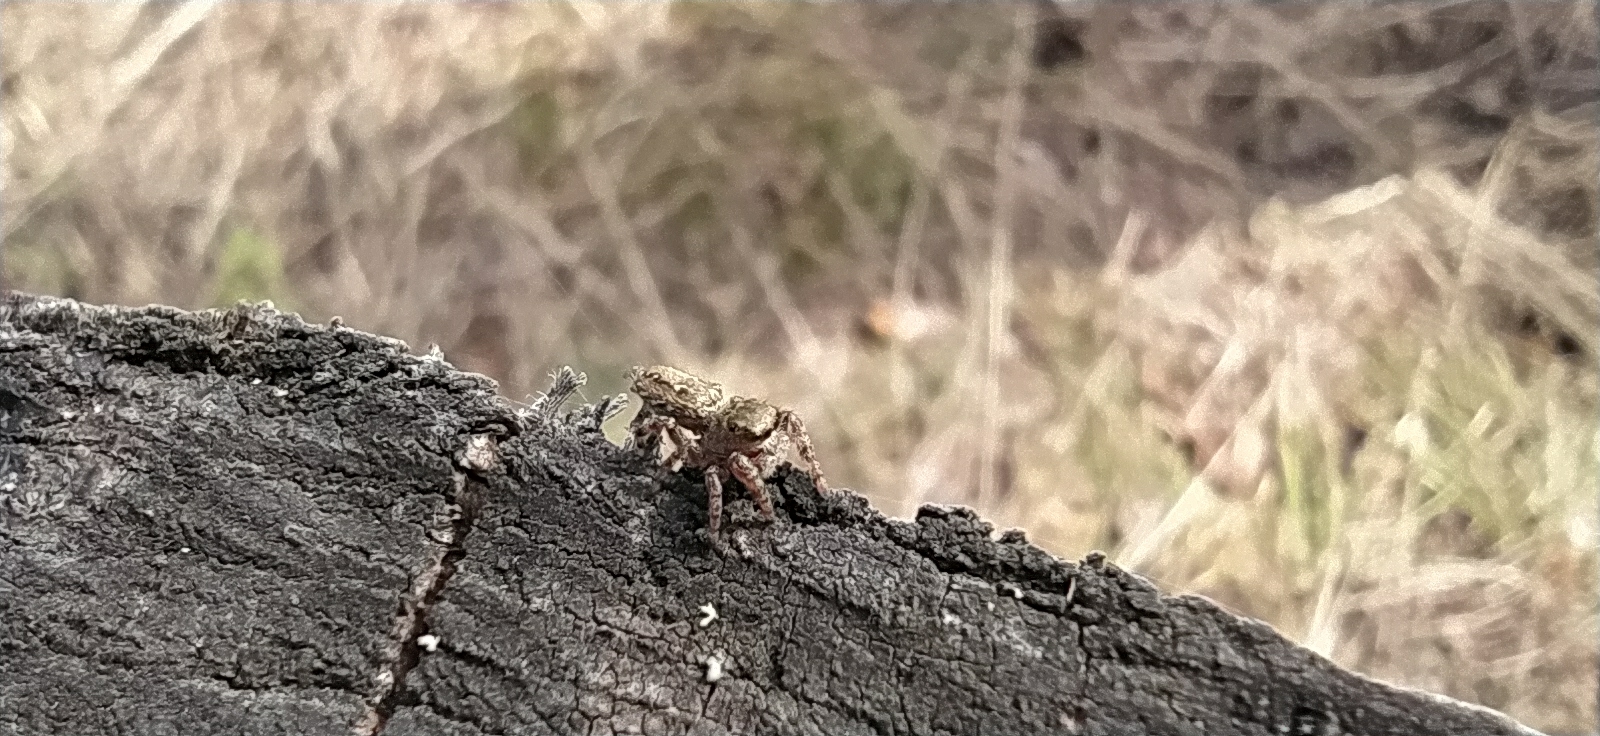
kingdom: Animalia
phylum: Arthropoda
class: Arachnida
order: Araneae
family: Salticidae
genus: Dendryphantes
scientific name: Dendryphantes rudis
